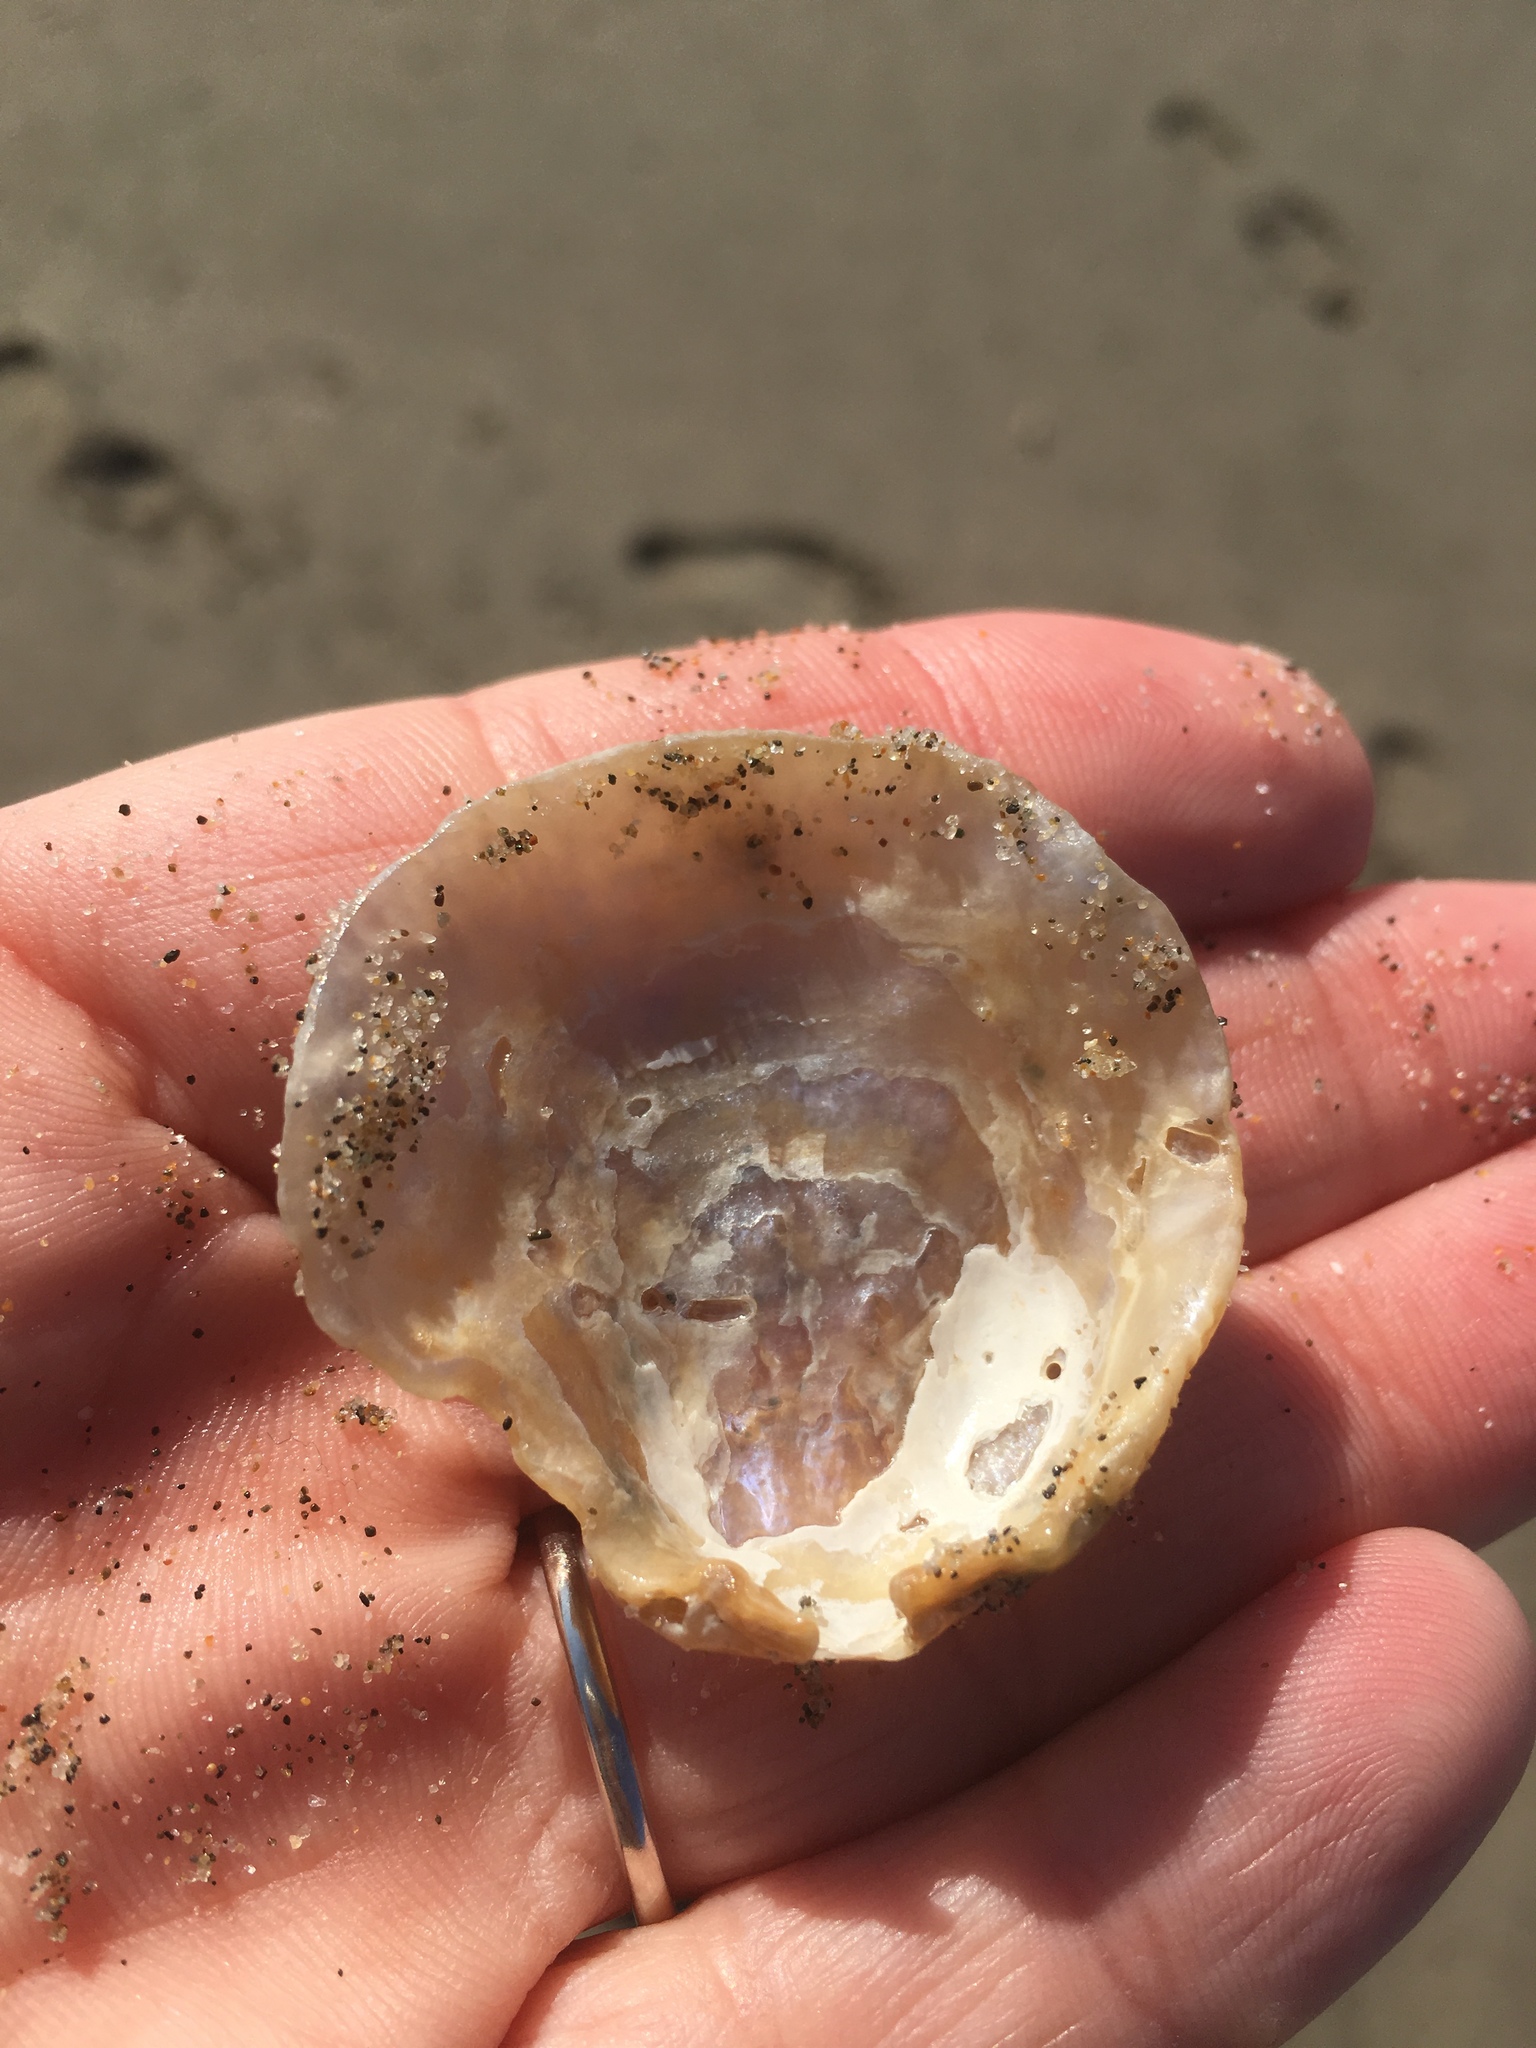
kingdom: Animalia
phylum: Mollusca
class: Bivalvia
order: Pectinida
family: Anomiidae
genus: Pododesmus
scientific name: Pododesmus macrochisma
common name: Alaska jingle
